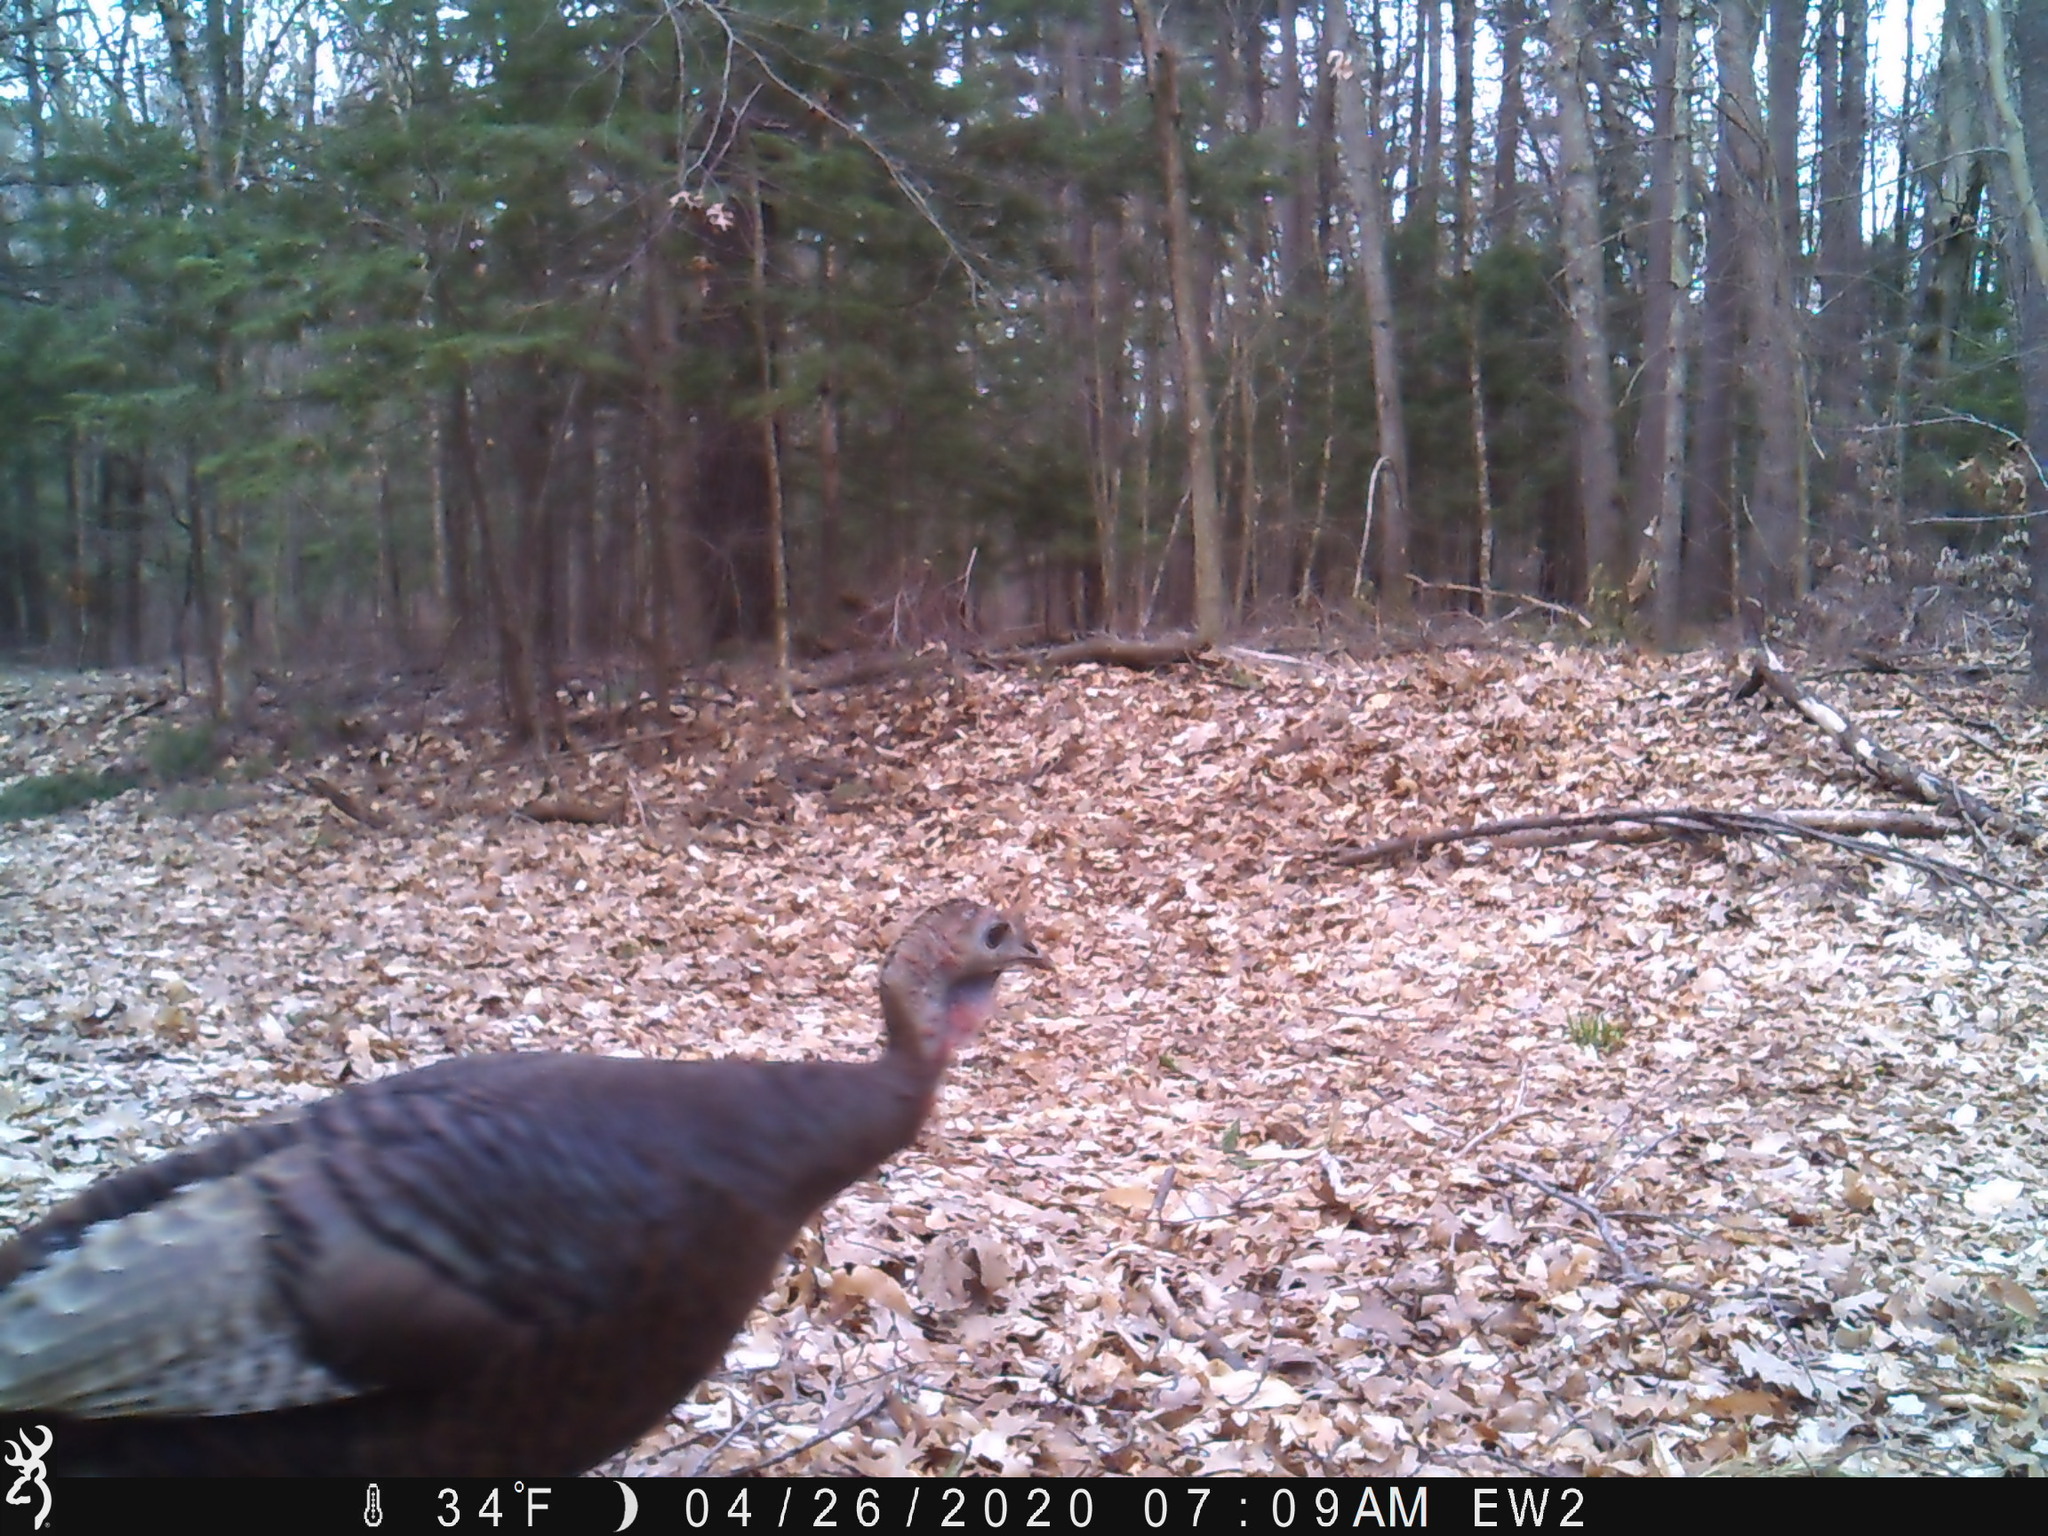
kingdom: Animalia
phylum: Chordata
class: Aves
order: Galliformes
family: Phasianidae
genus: Meleagris
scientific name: Meleagris gallopavo
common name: Wild turkey
